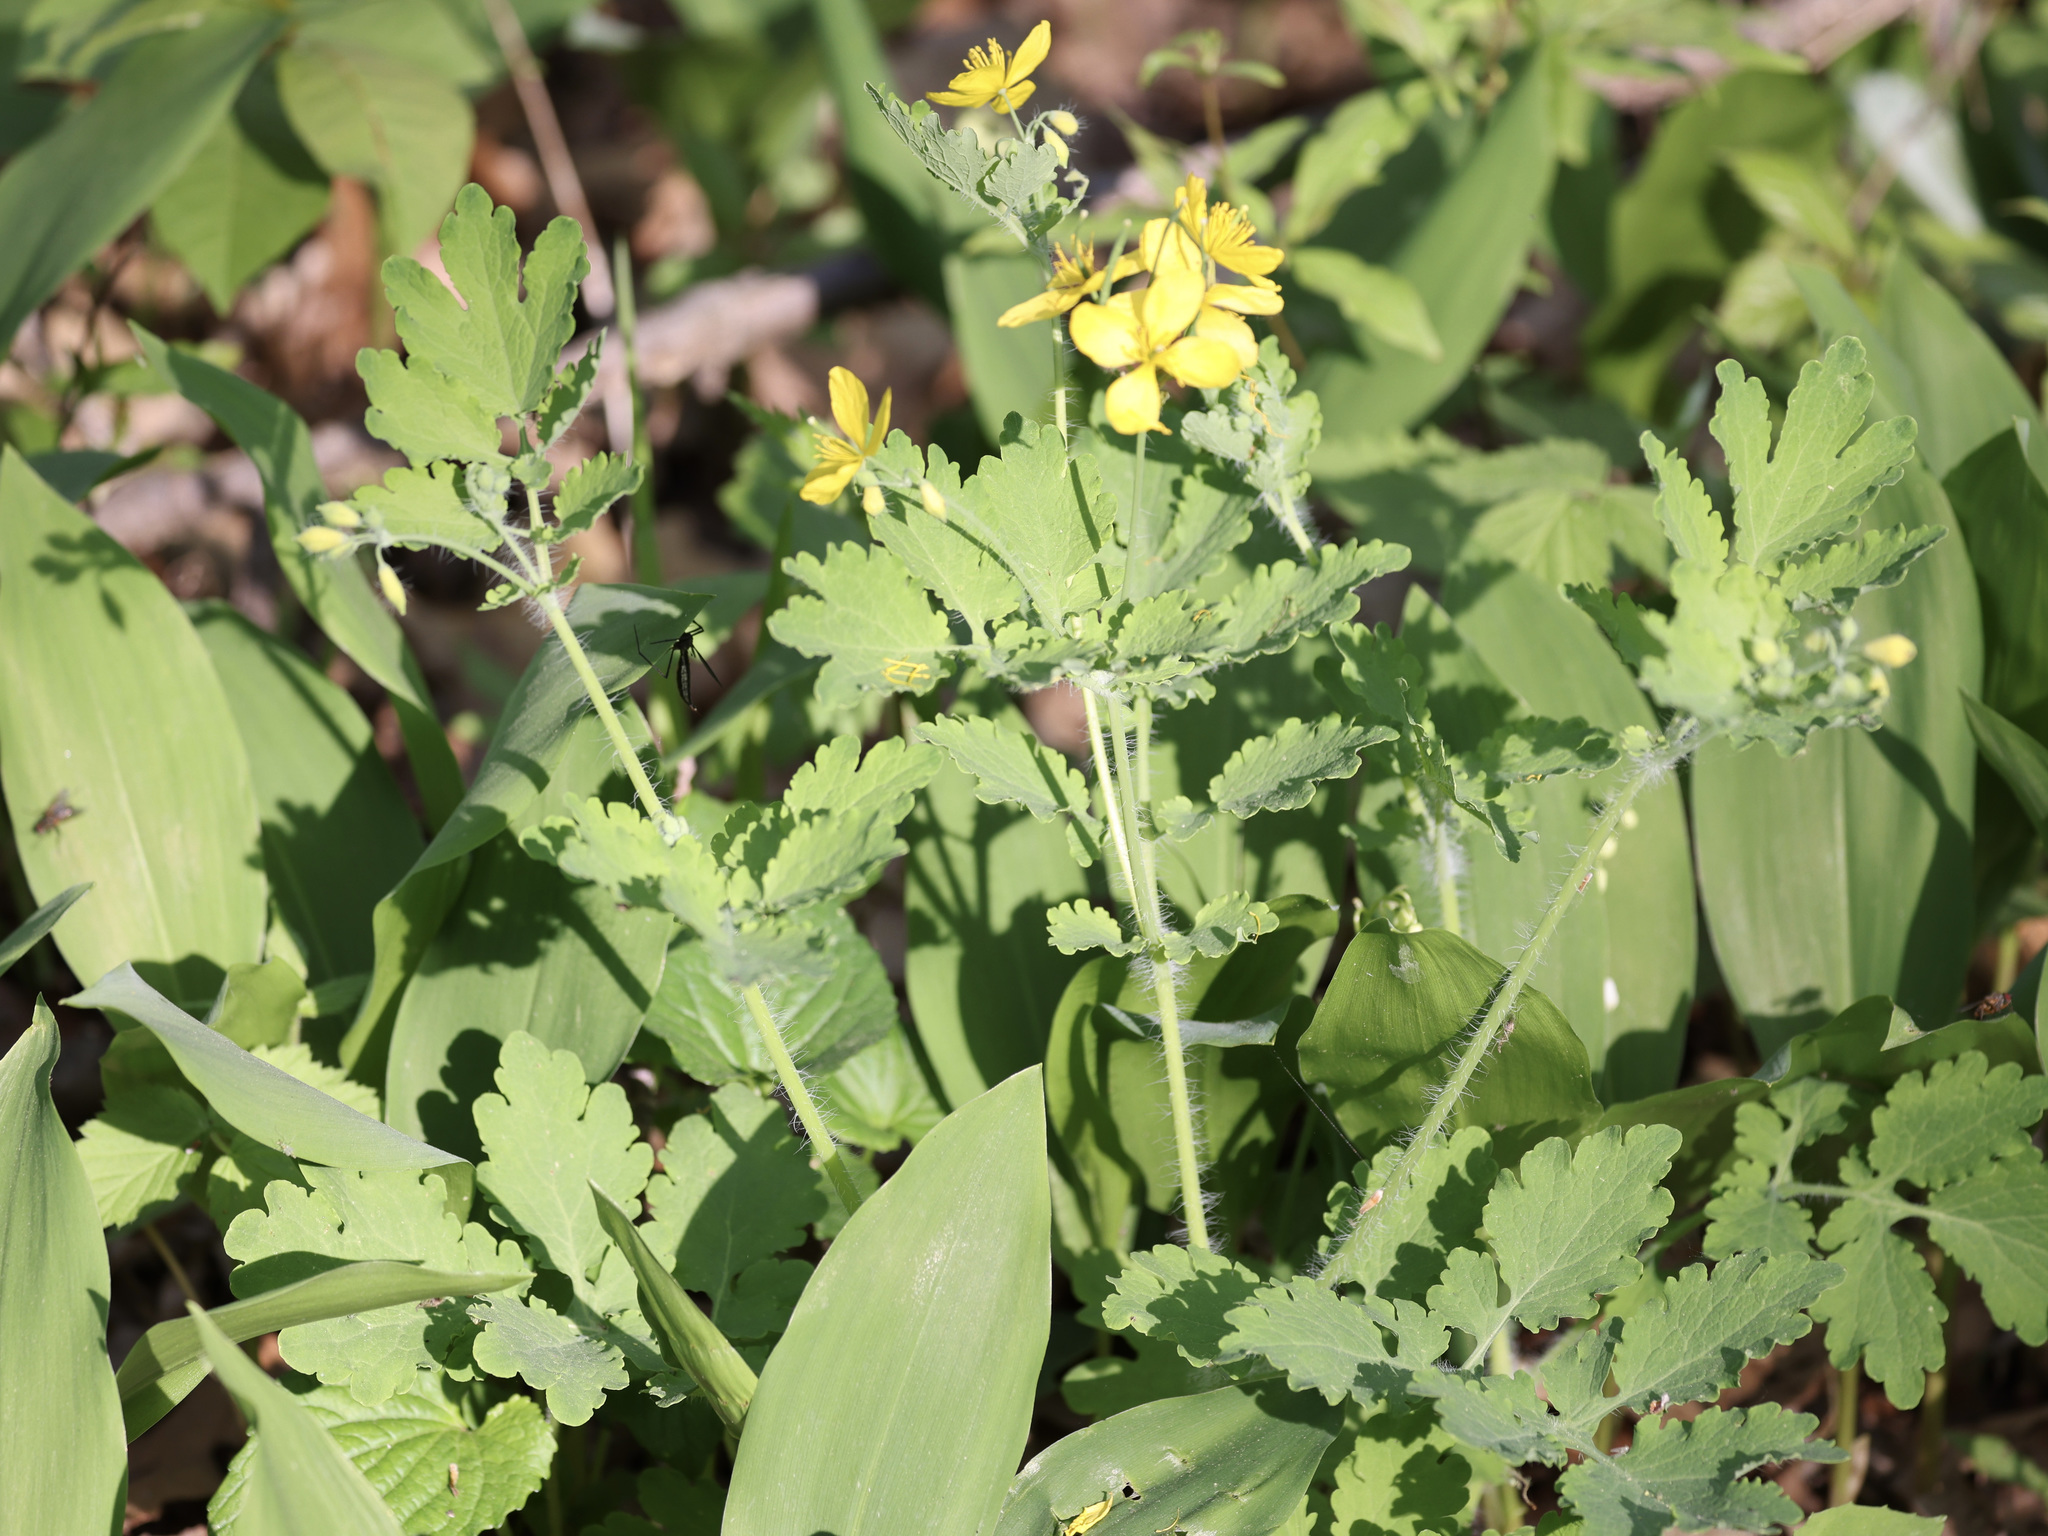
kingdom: Plantae
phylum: Tracheophyta
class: Magnoliopsida
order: Ranunculales
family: Papaveraceae
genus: Chelidonium
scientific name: Chelidonium majus
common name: Greater celandine
